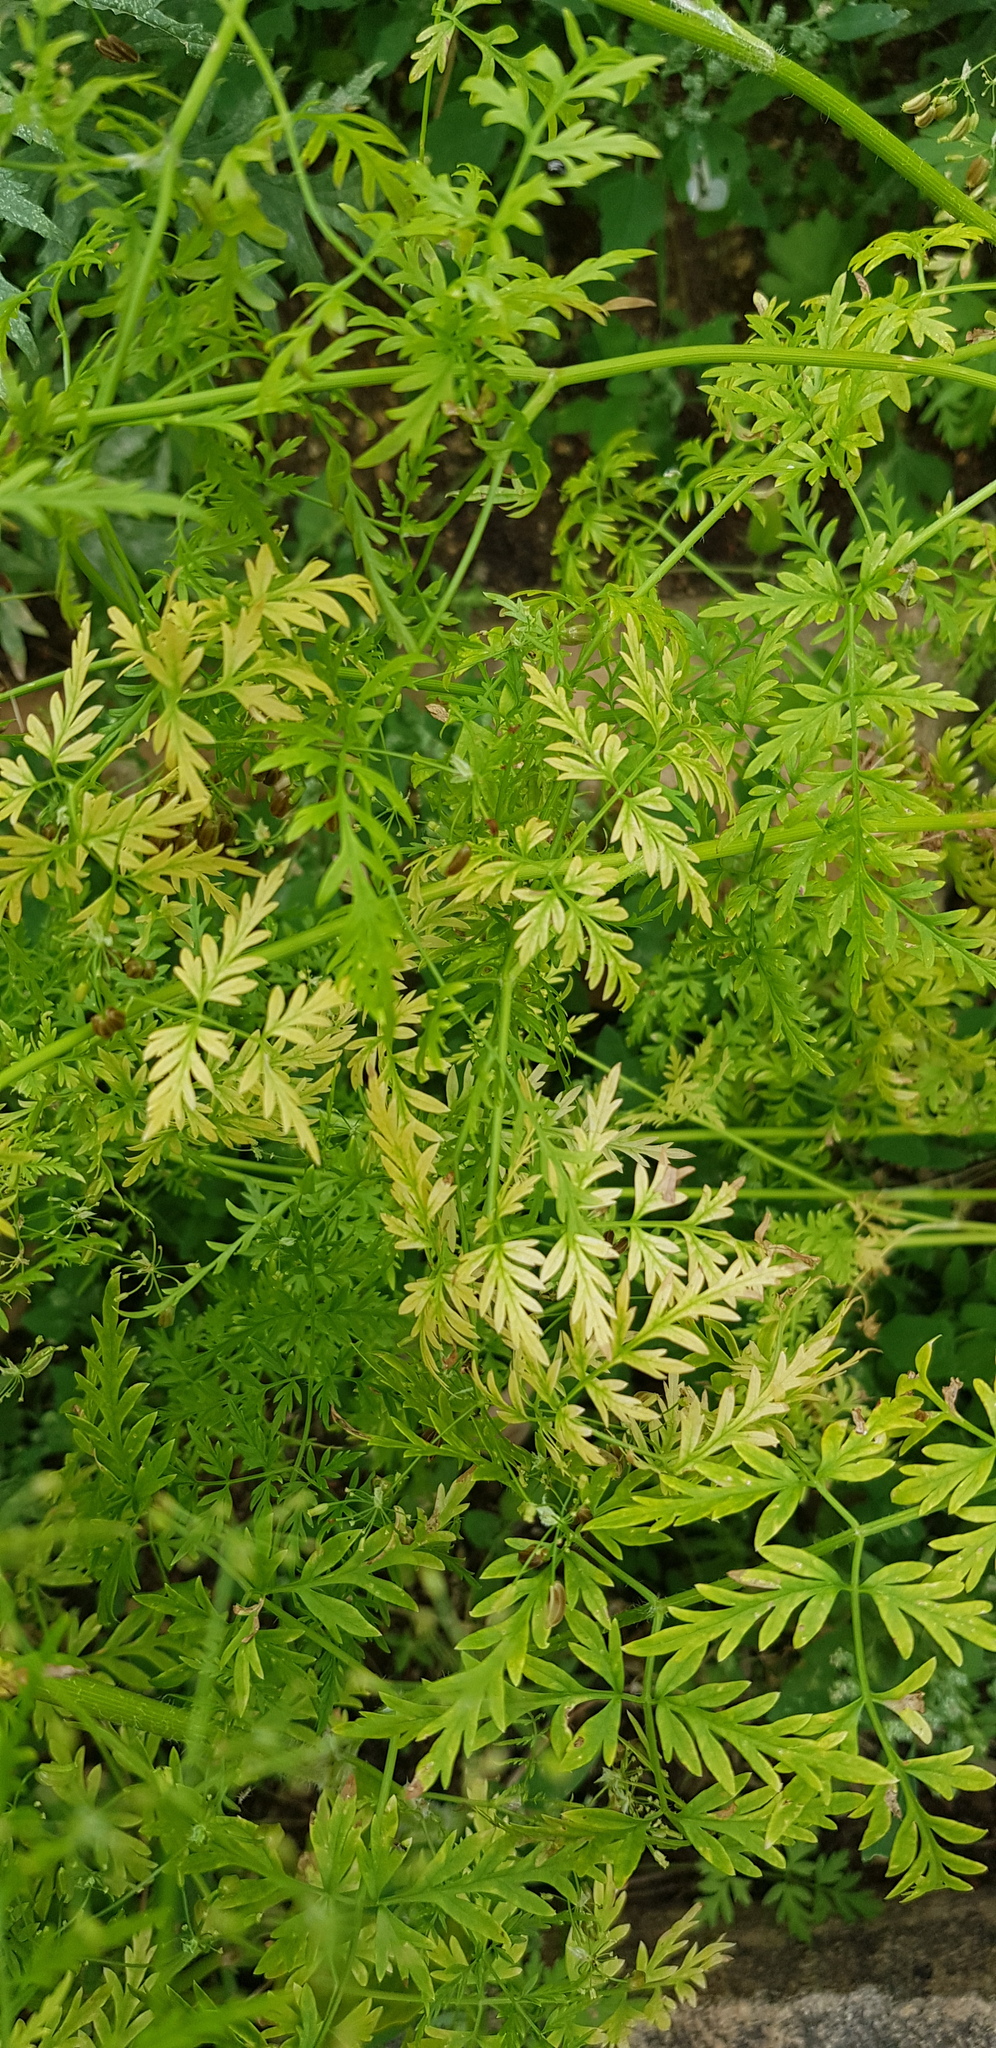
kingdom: Plantae
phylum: Tracheophyta
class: Magnoliopsida
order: Apiales
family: Apiaceae
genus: Sphallerocarpus
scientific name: Sphallerocarpus gracilis
